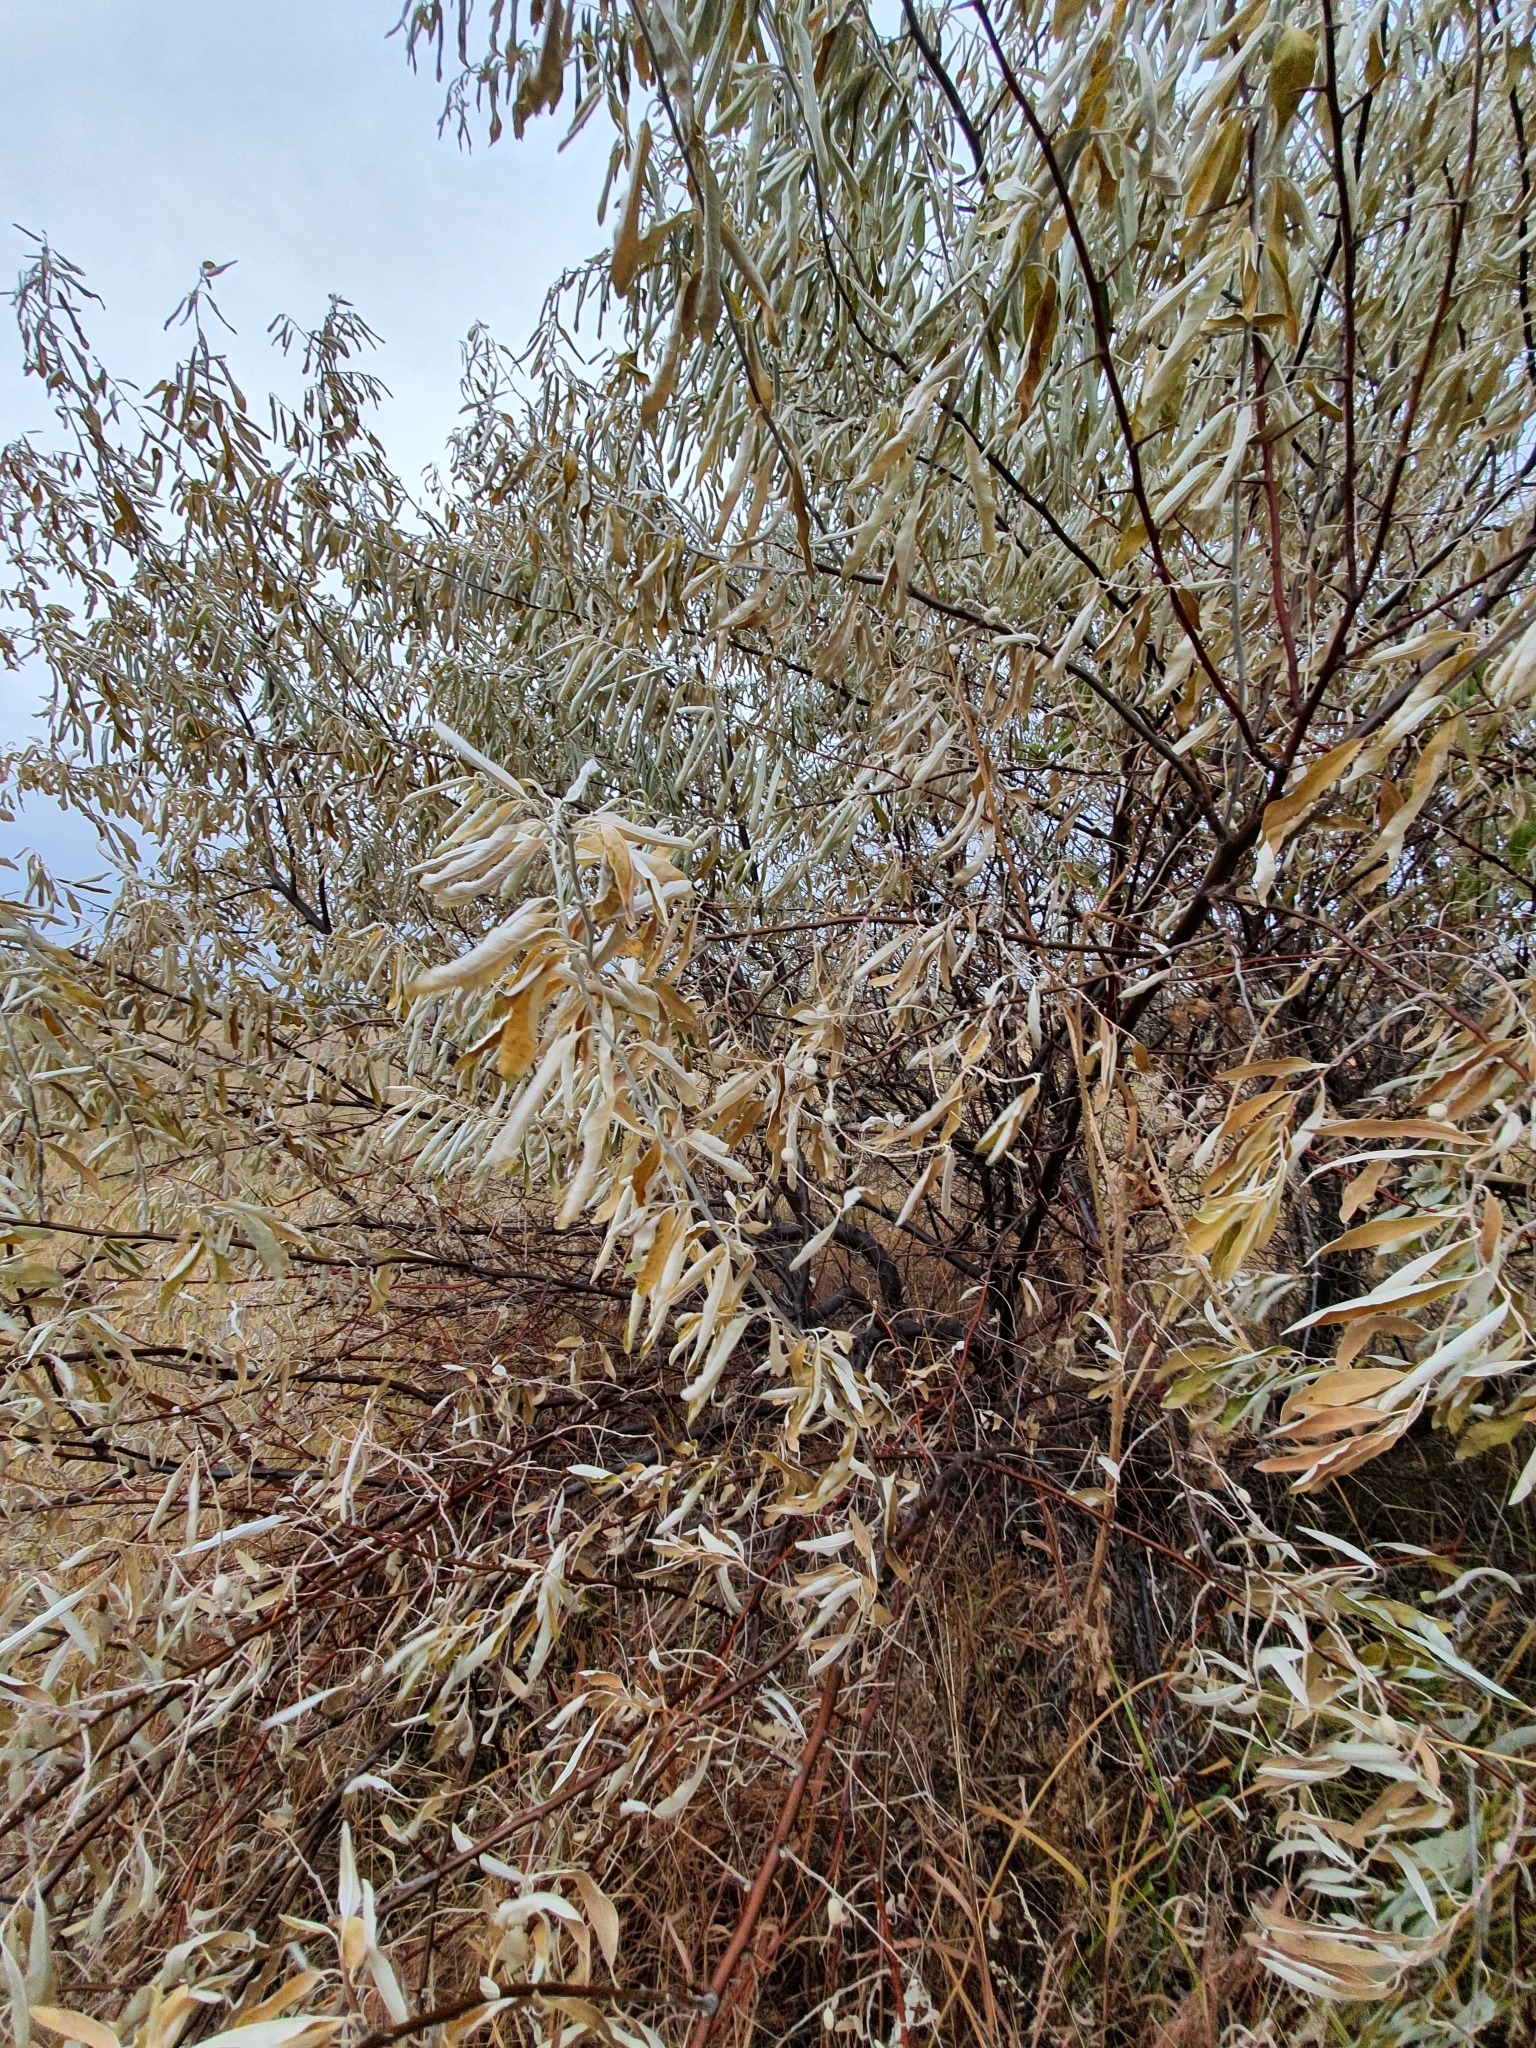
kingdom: Plantae
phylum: Tracheophyta
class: Magnoliopsida
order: Rosales
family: Elaeagnaceae
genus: Elaeagnus
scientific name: Elaeagnus angustifolia
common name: Russian olive
